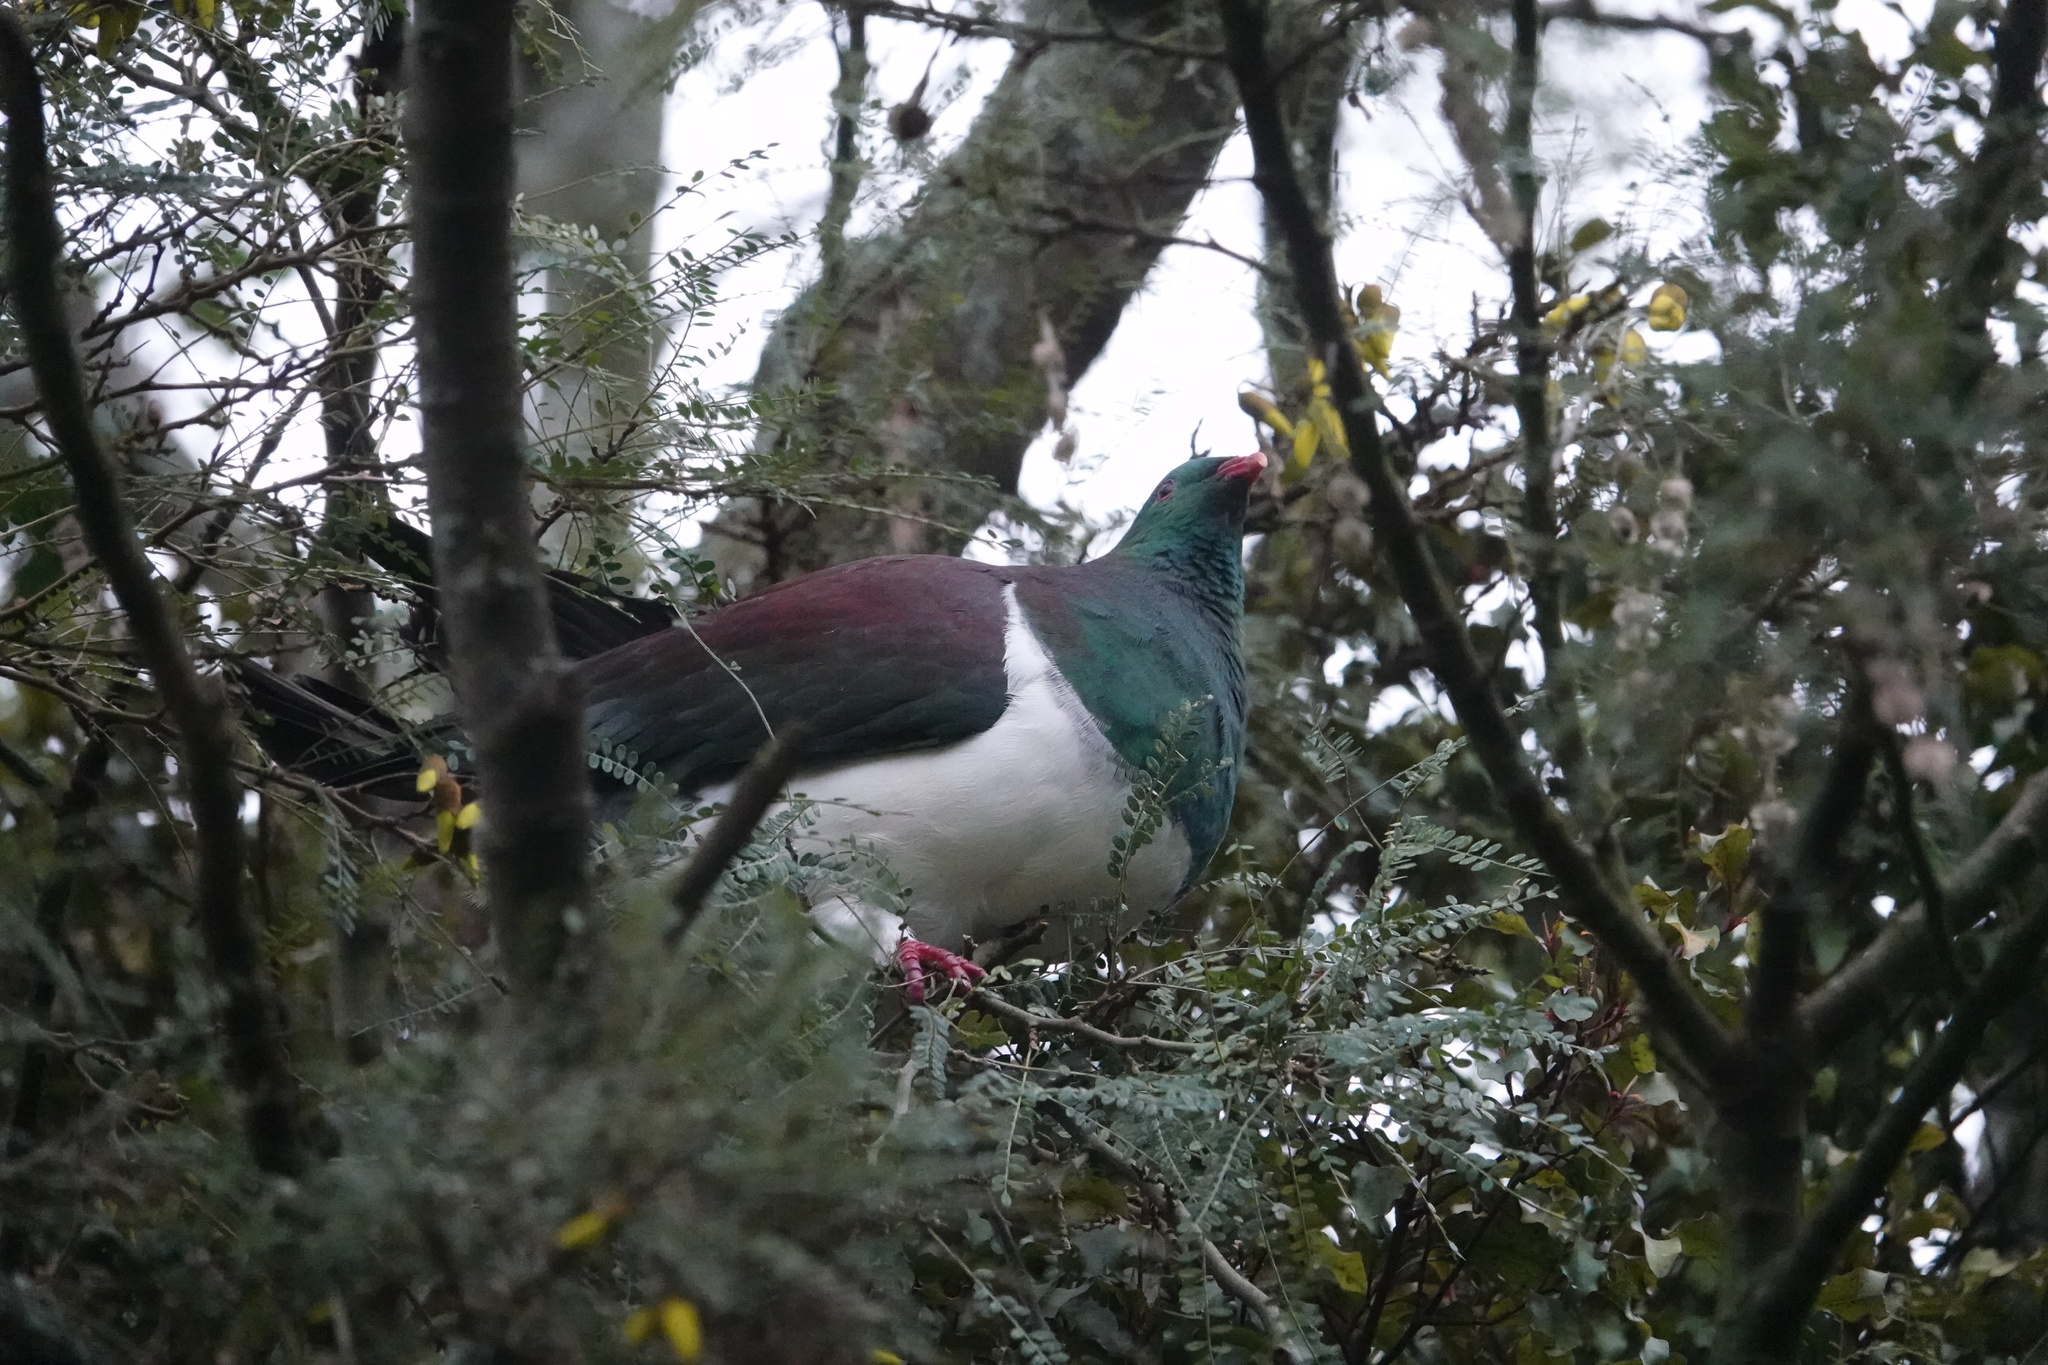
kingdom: Animalia
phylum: Chordata
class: Aves
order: Columbiformes
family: Columbidae
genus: Hemiphaga
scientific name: Hemiphaga novaeseelandiae
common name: New zealand pigeon
